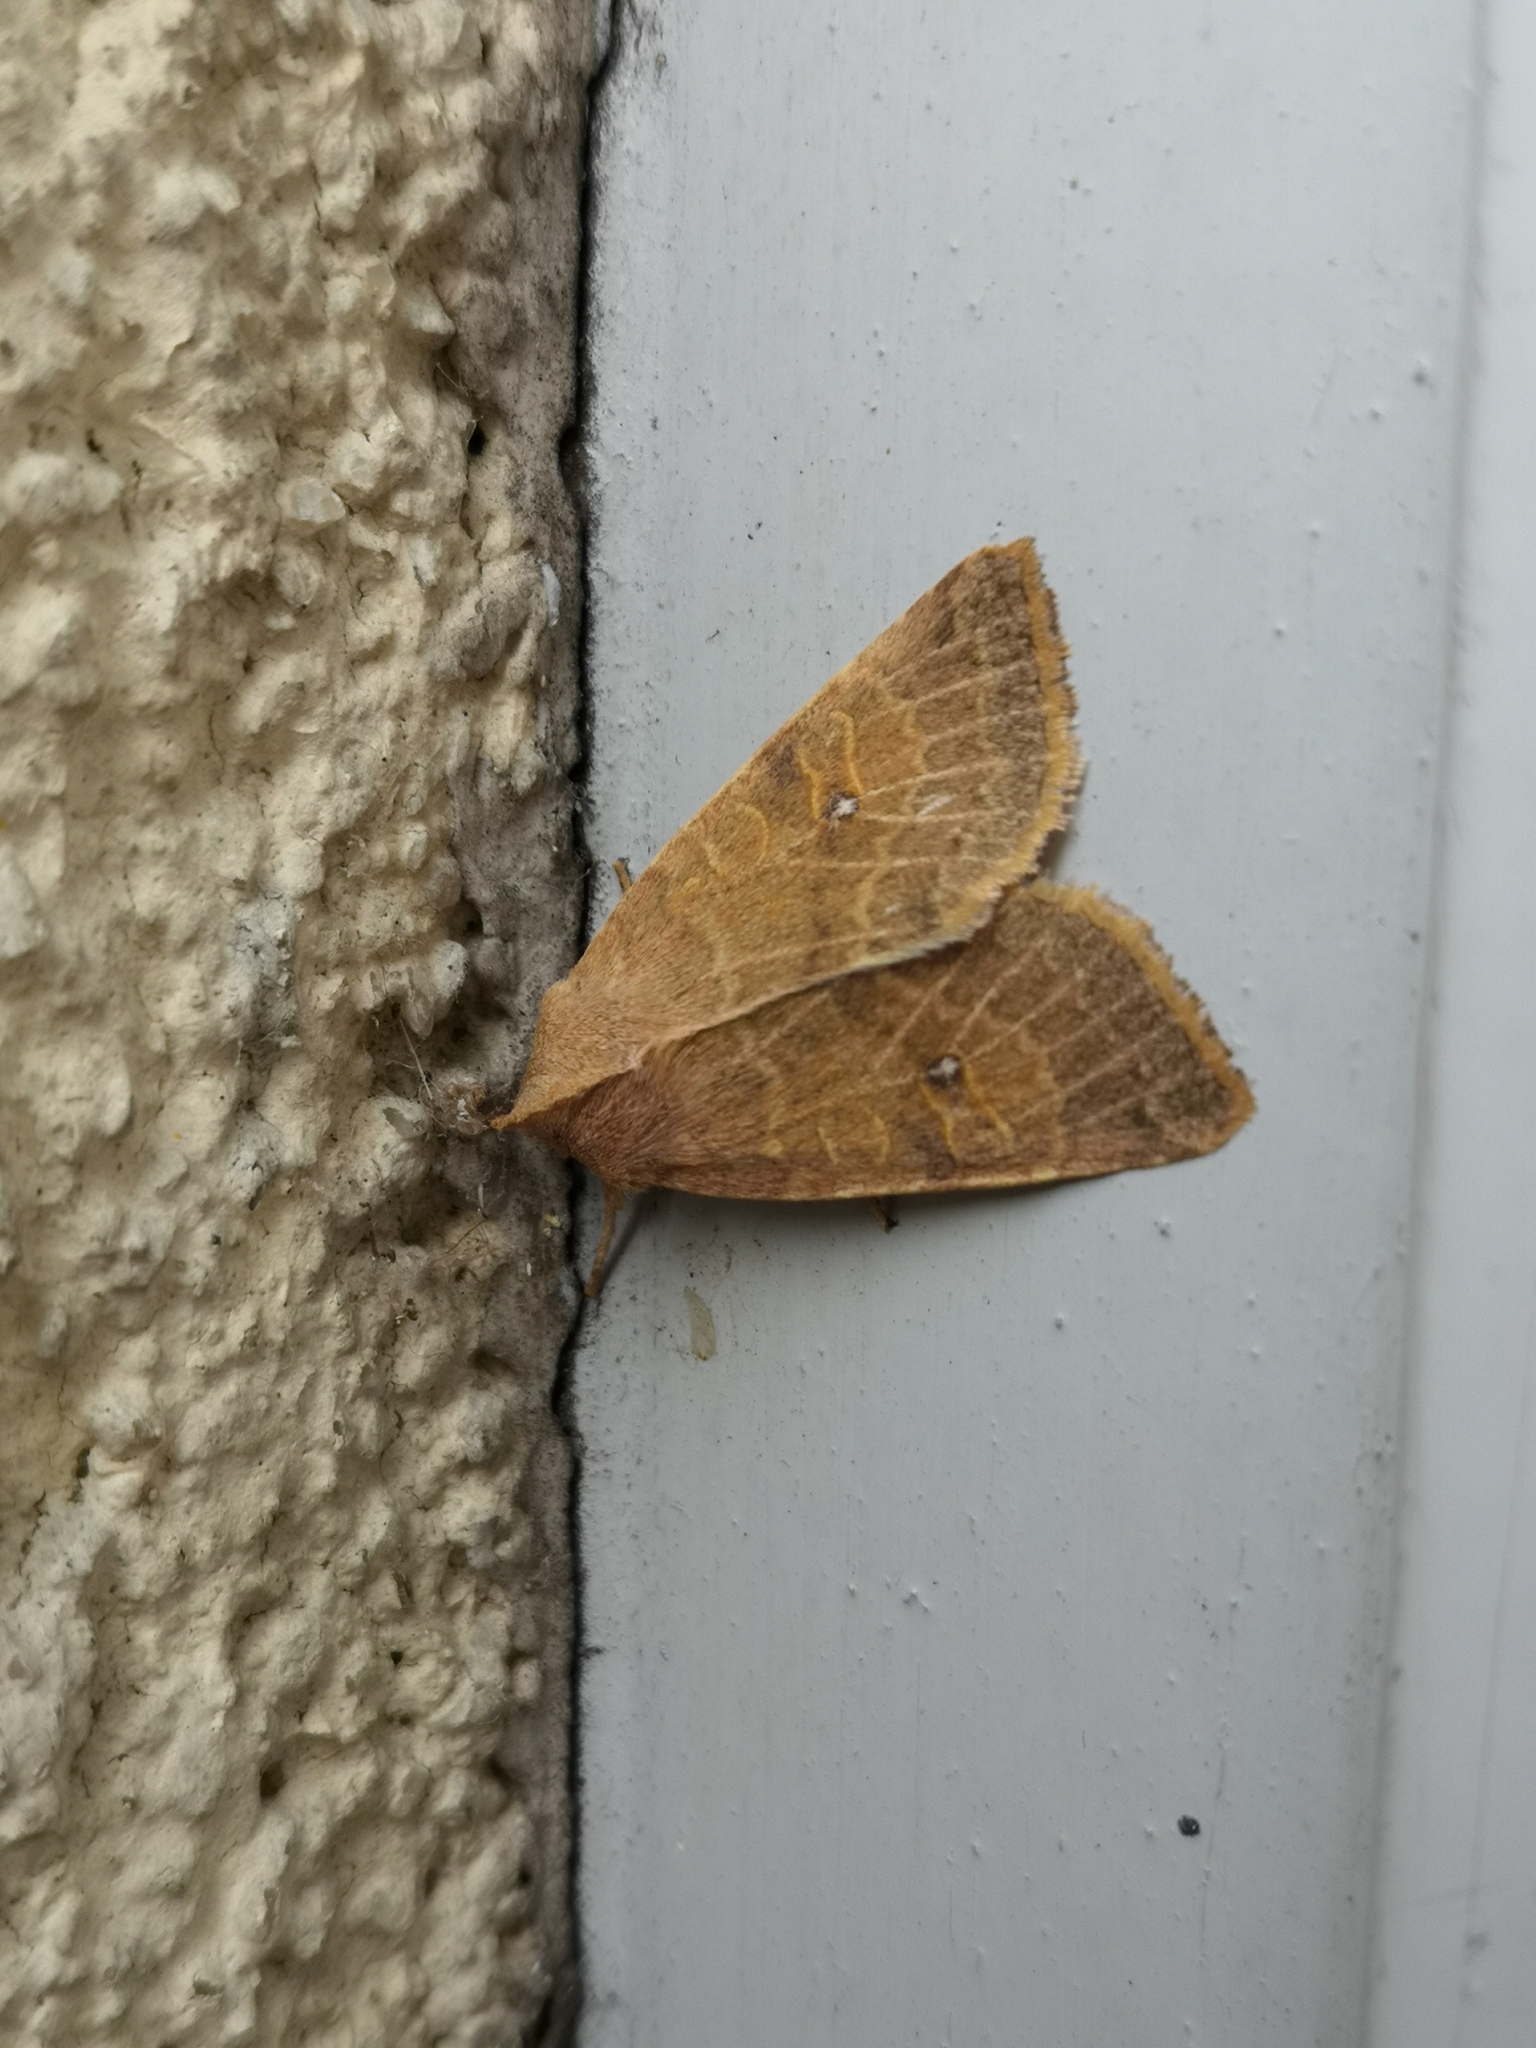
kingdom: Animalia
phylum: Arthropoda
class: Insecta
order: Lepidoptera
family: Noctuidae
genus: Xanthia
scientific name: Xanthia ocellaris
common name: Pale-lemon sallow
